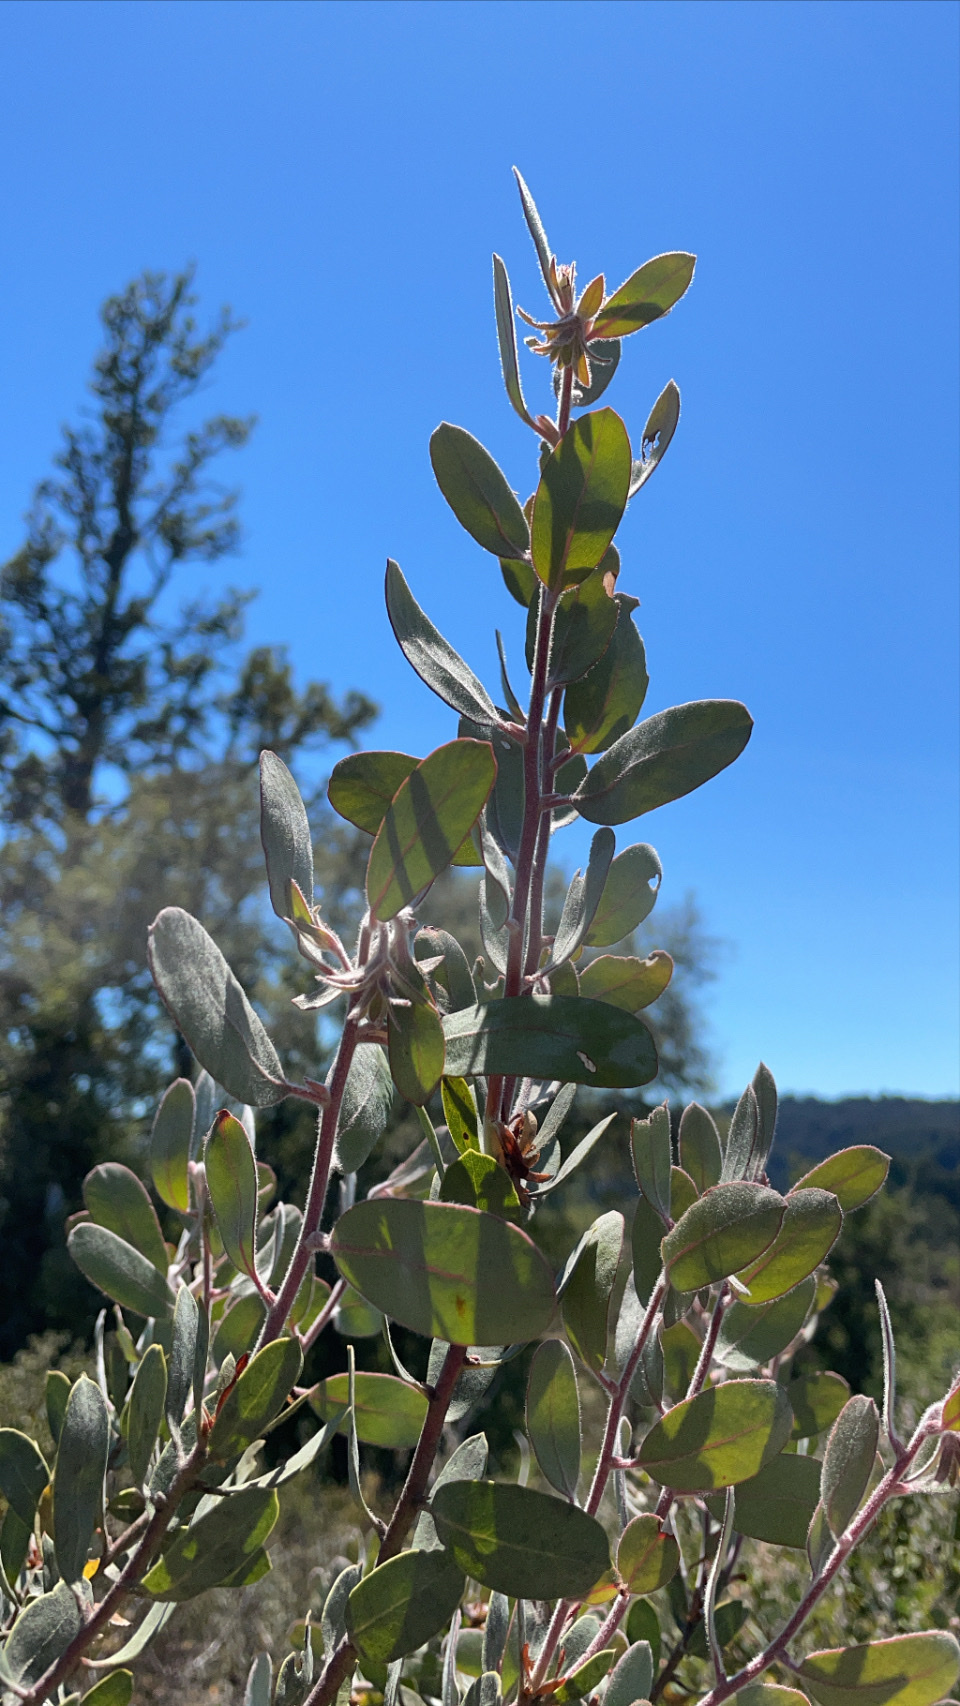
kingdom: Plantae
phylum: Tracheophyta
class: Magnoliopsida
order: Ericales
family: Ericaceae
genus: Arctostaphylos
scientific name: Arctostaphylos silvicola
